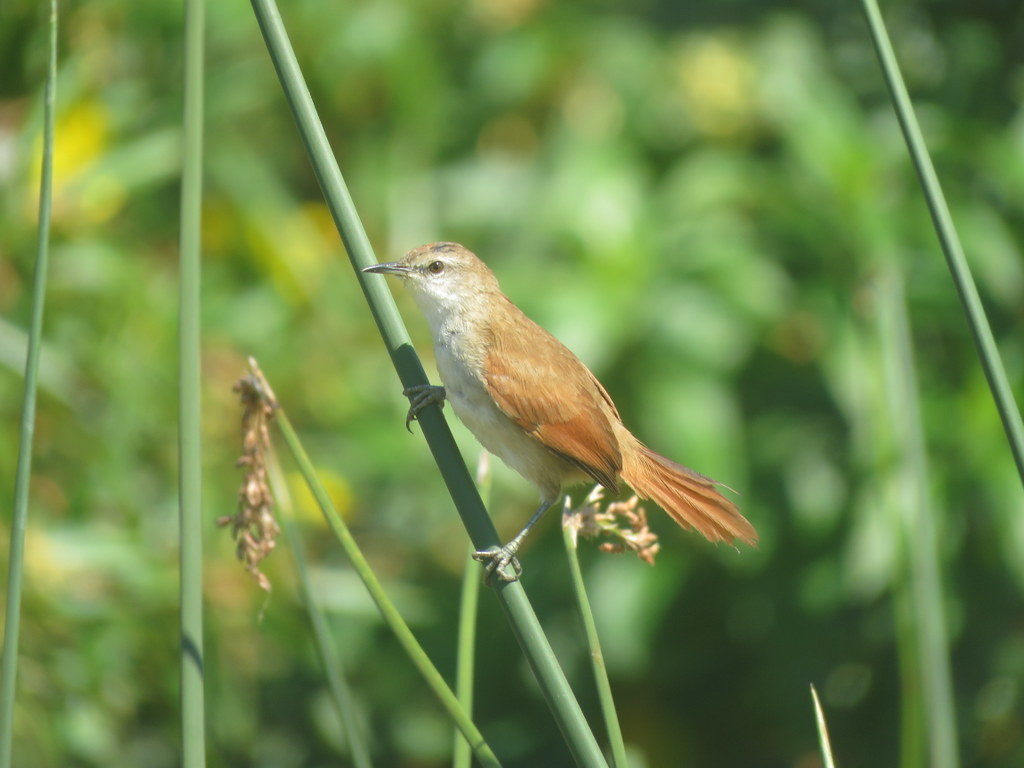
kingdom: Animalia
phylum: Chordata
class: Aves
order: Passeriformes
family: Furnariidae
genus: Certhiaxis
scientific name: Certhiaxis cinnamomeus
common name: Yellow-chinned spinetail
